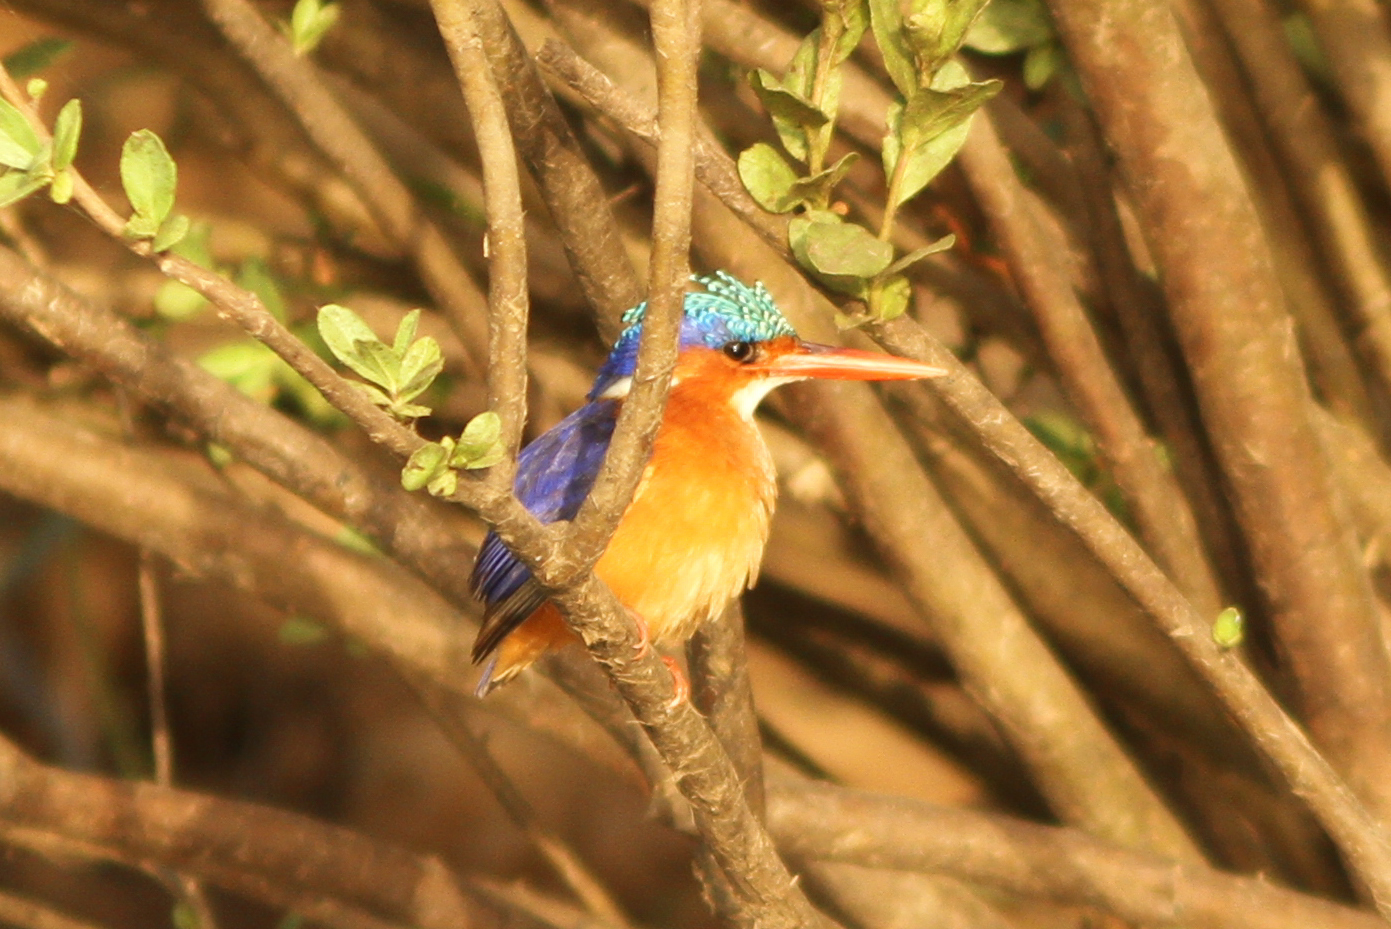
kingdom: Animalia
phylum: Chordata
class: Aves
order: Coraciiformes
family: Alcedinidae
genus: Corythornis
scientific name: Corythornis cristatus
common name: Malachite kingfisher
